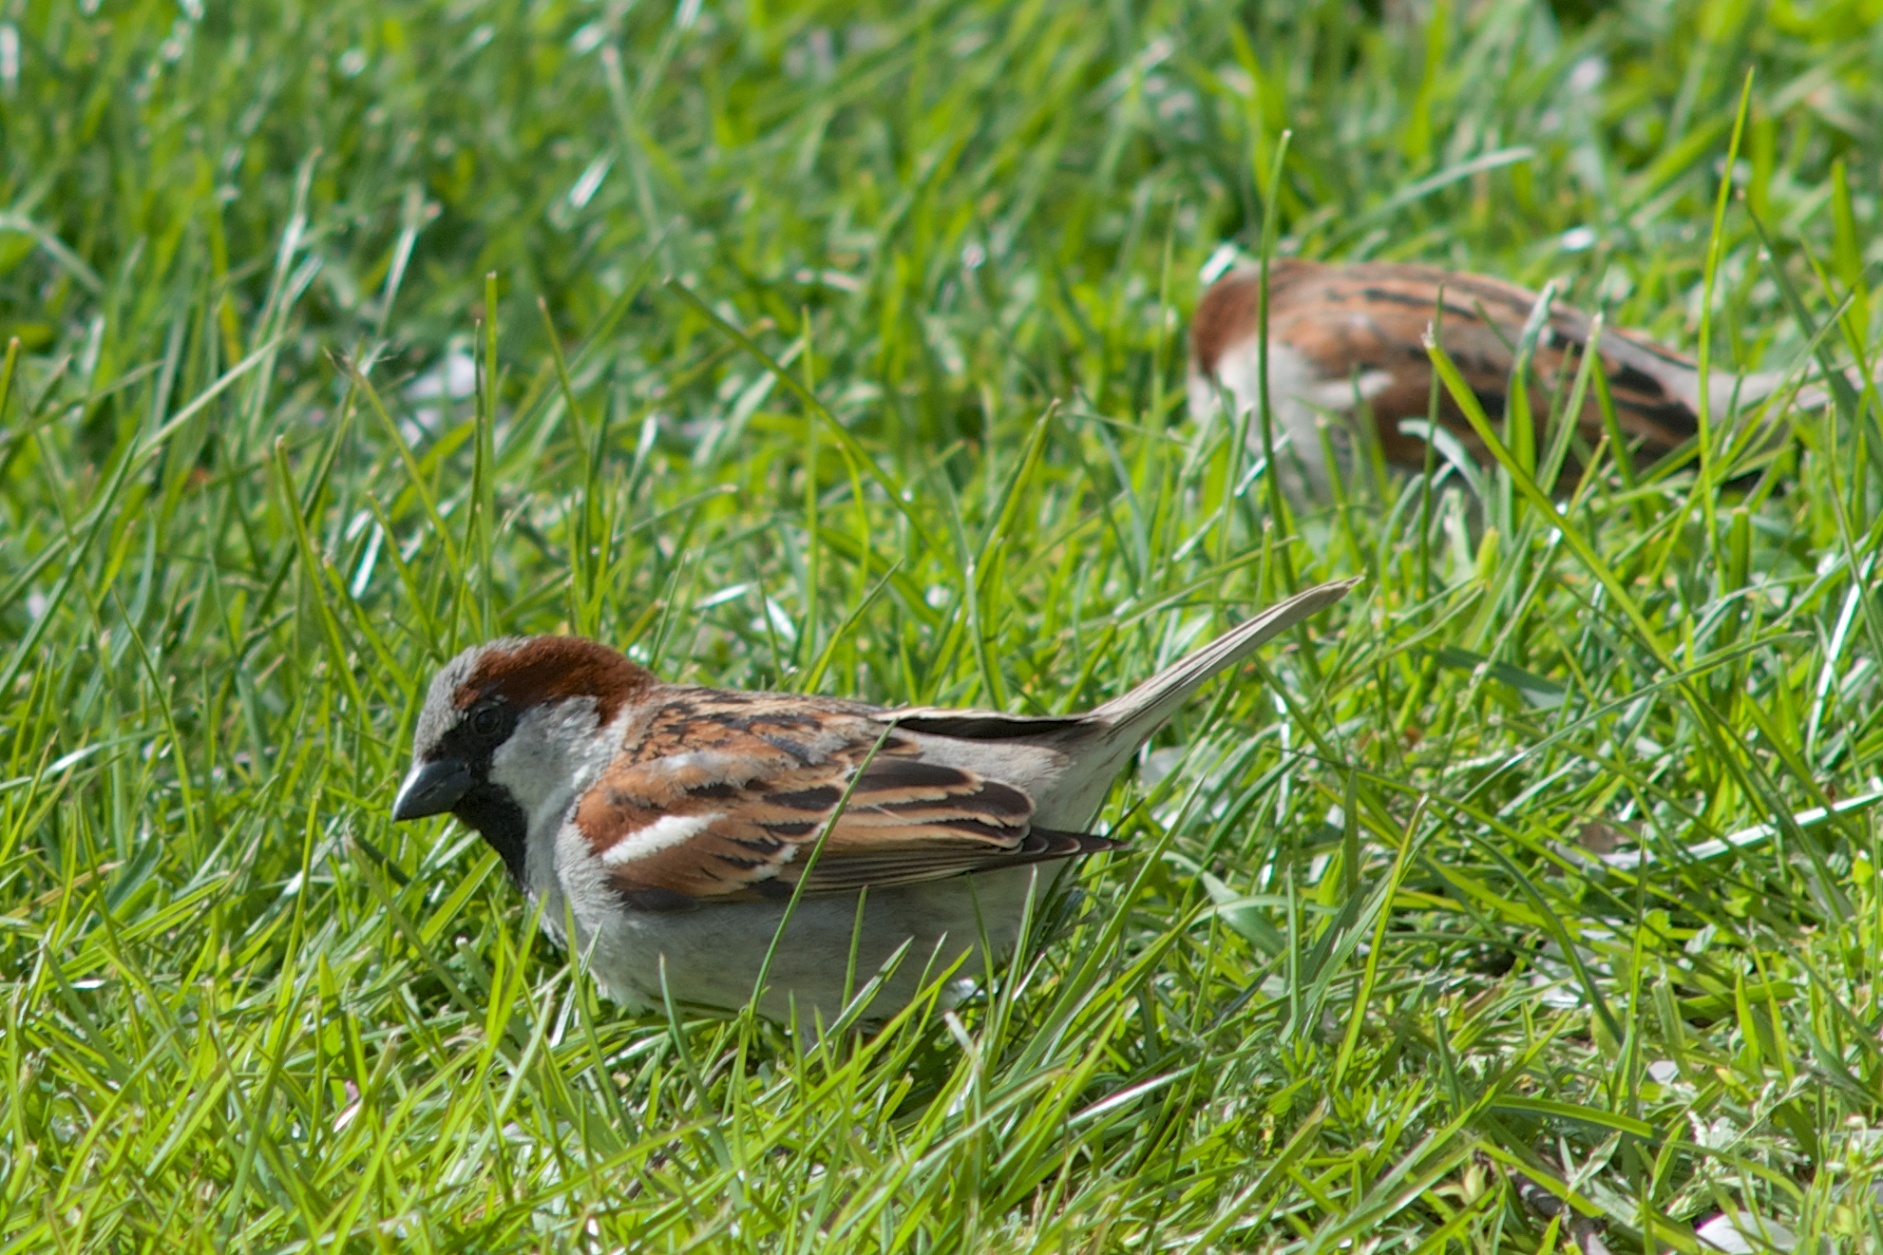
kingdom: Animalia
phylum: Chordata
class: Aves
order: Passeriformes
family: Passeridae
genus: Passer
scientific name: Passer domesticus
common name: House sparrow
